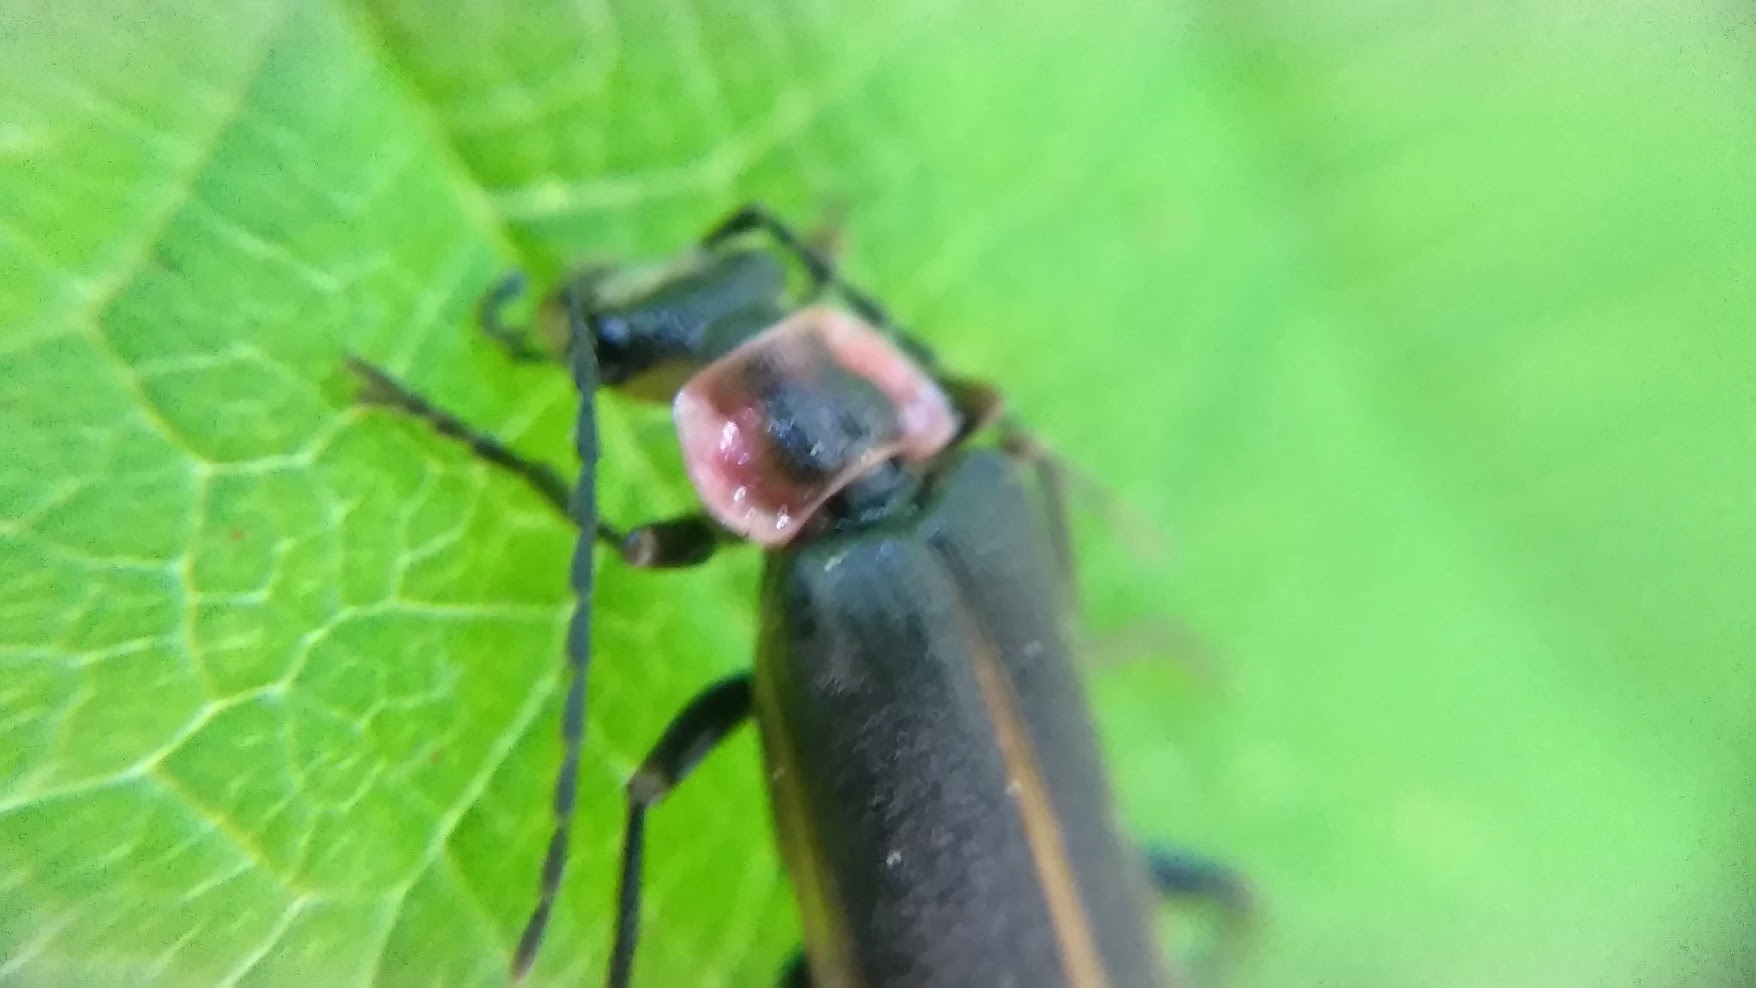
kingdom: Animalia
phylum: Arthropoda
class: Insecta
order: Coleoptera
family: Cantharidae
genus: Podabrus
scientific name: Podabrus brevicollis
